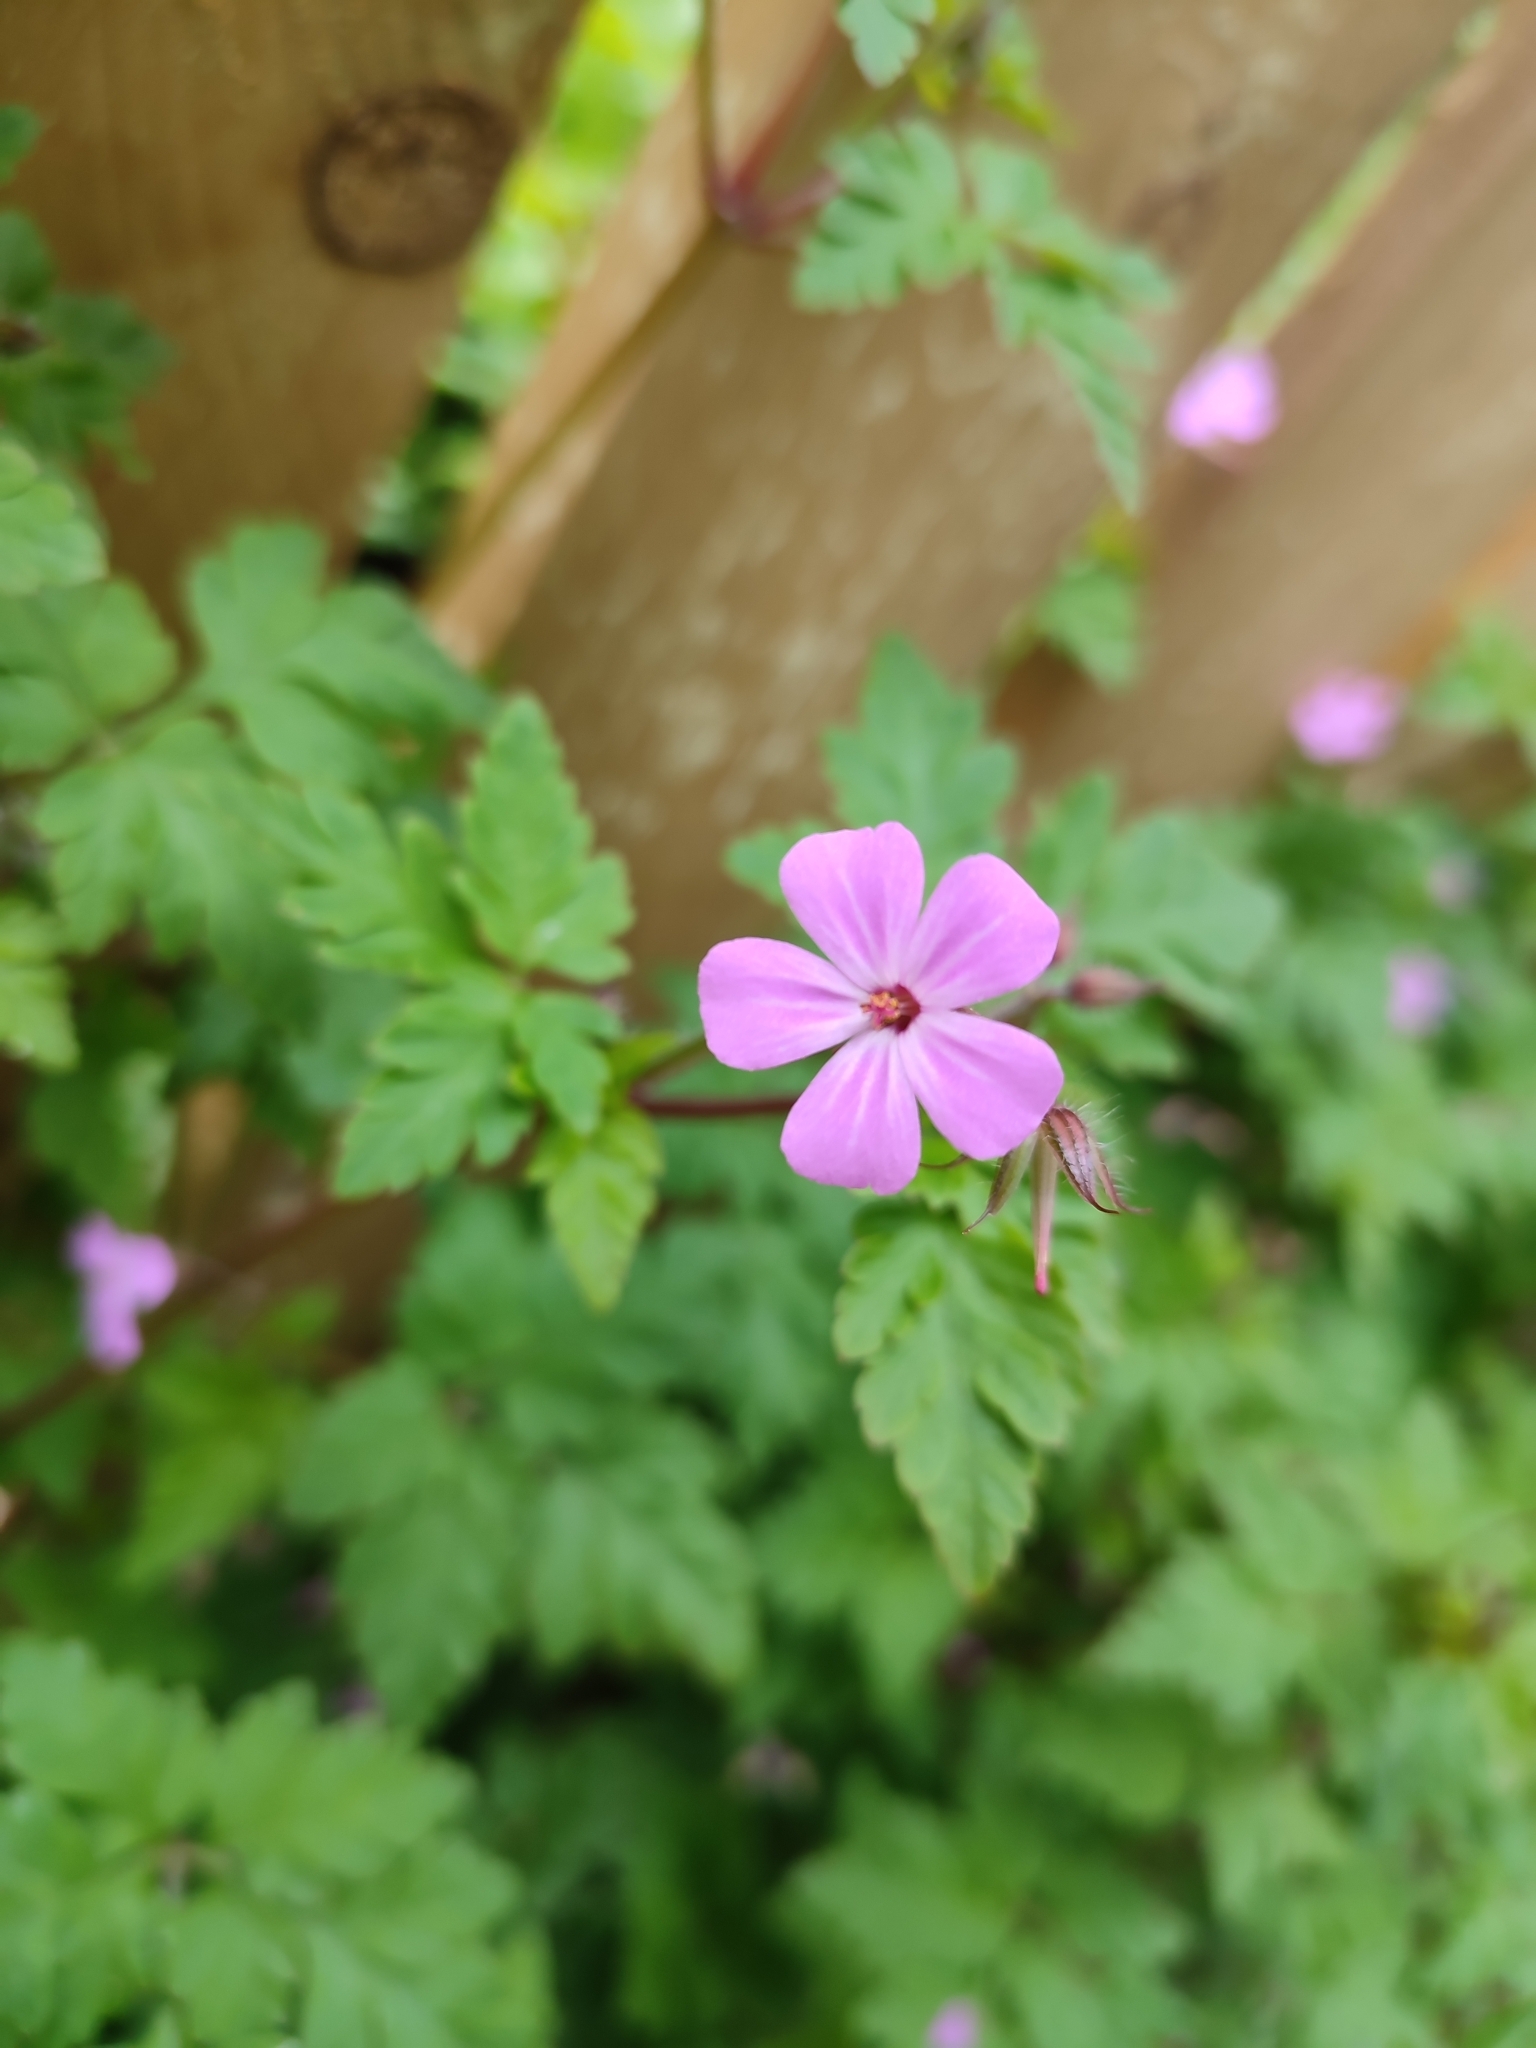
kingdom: Plantae
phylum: Tracheophyta
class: Magnoliopsida
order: Geraniales
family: Geraniaceae
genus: Geranium
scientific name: Geranium robertianum
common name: Herb-robert
